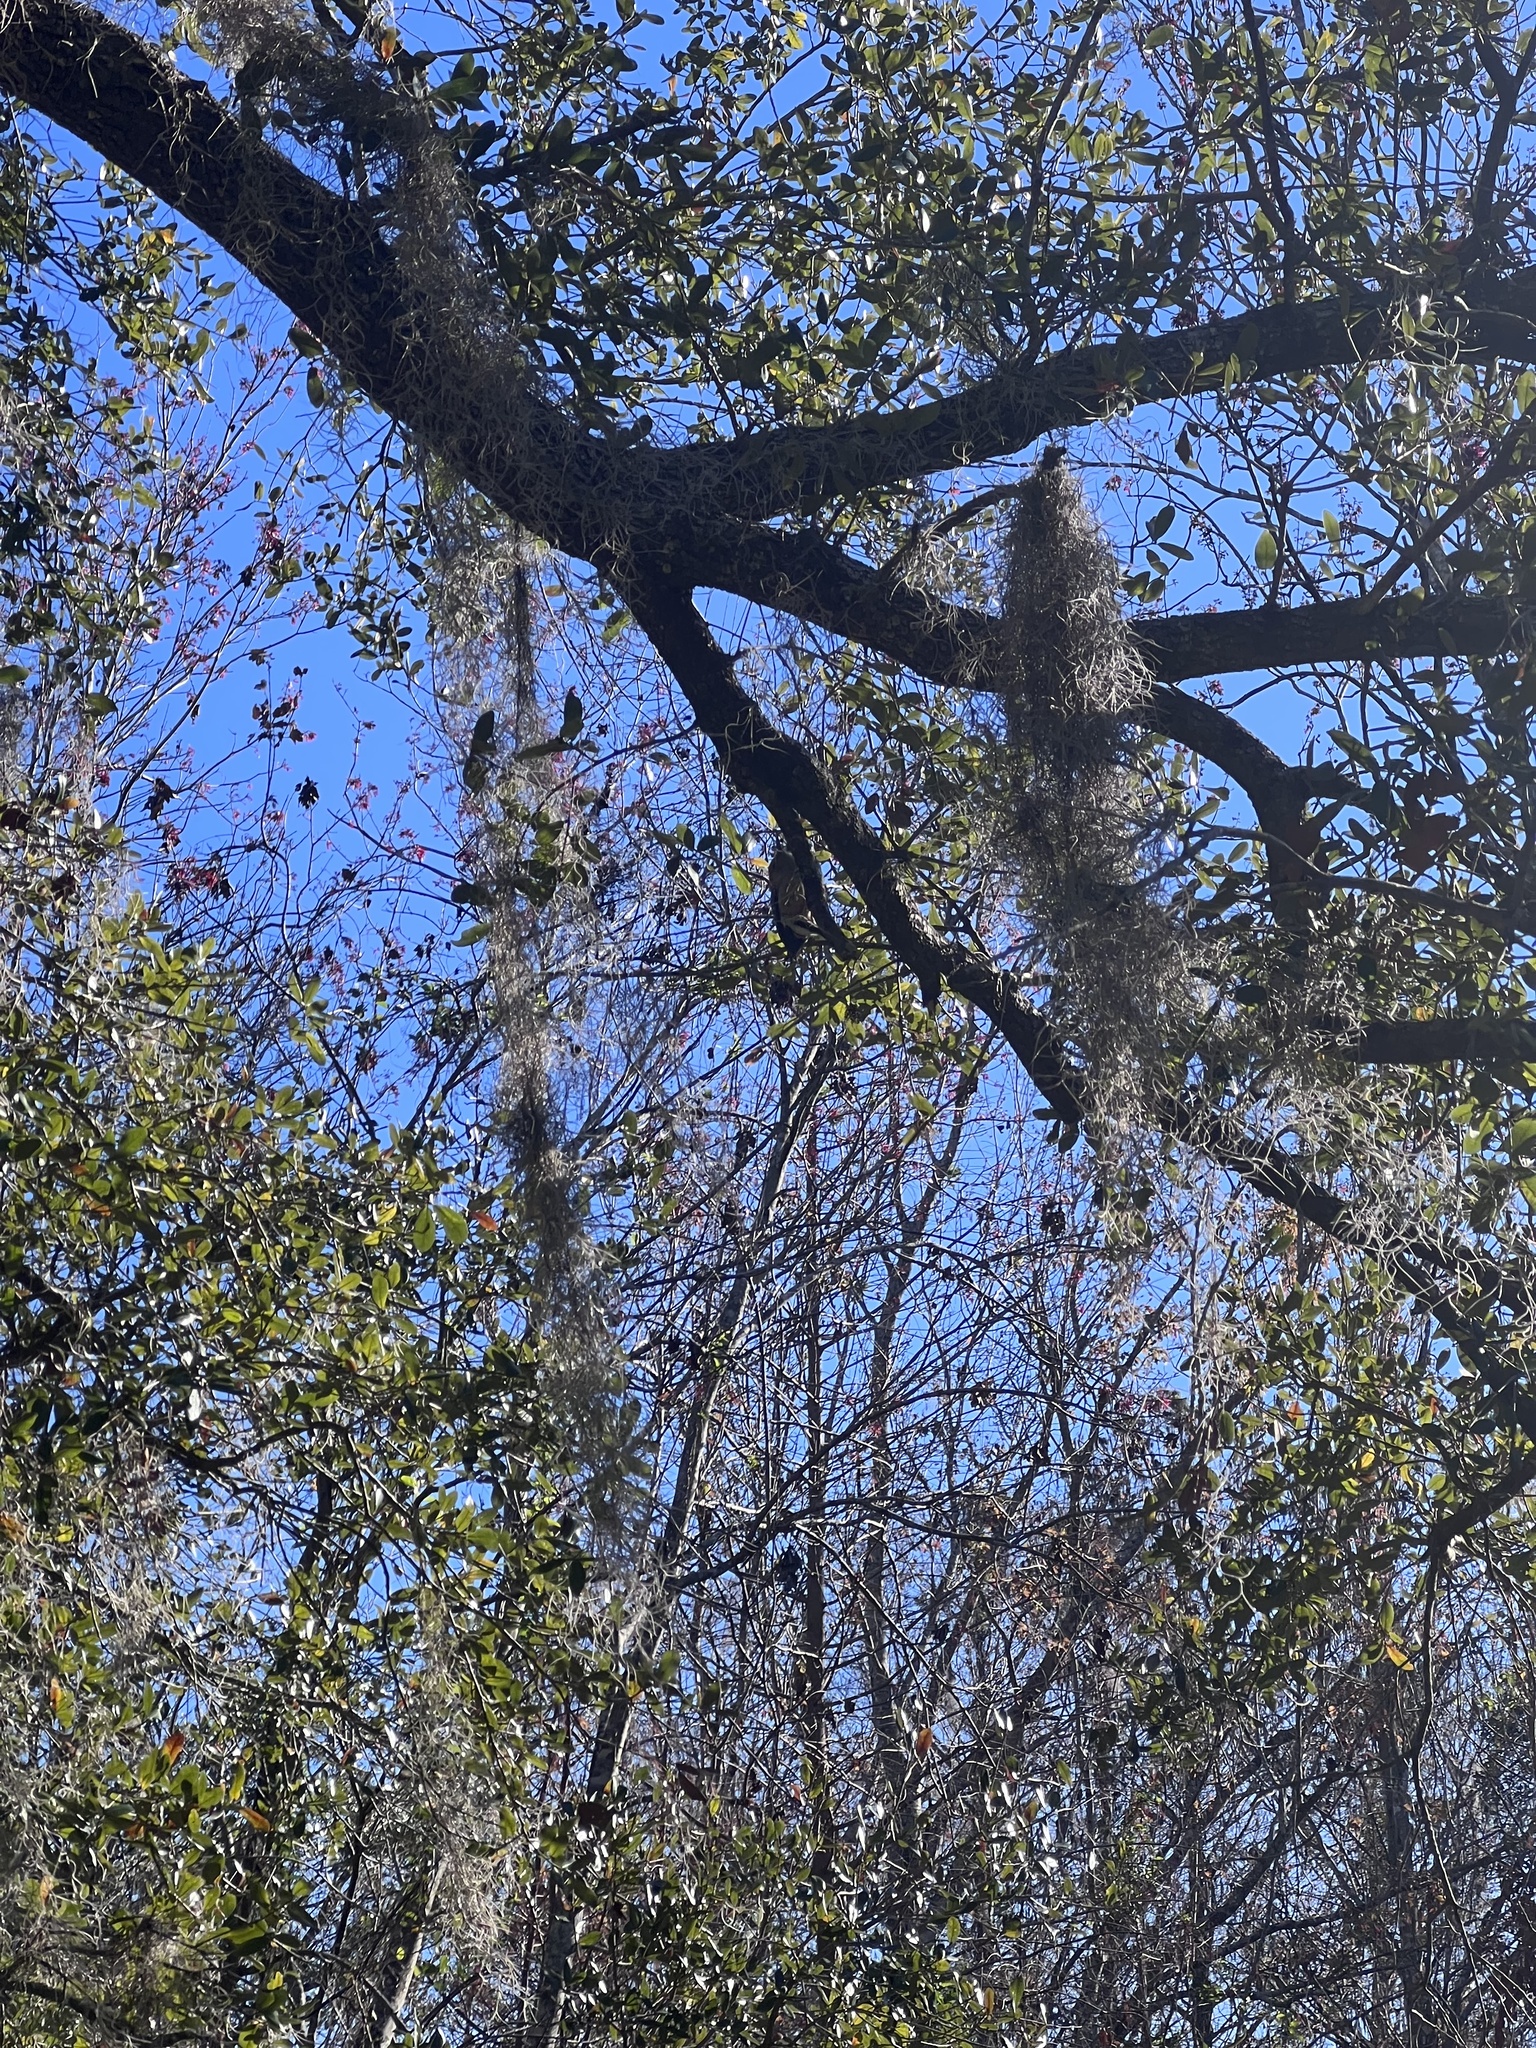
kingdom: Animalia
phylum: Chordata
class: Aves
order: Piciformes
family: Picidae
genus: Melanerpes
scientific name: Melanerpes carolinus
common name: Red-bellied woodpecker
